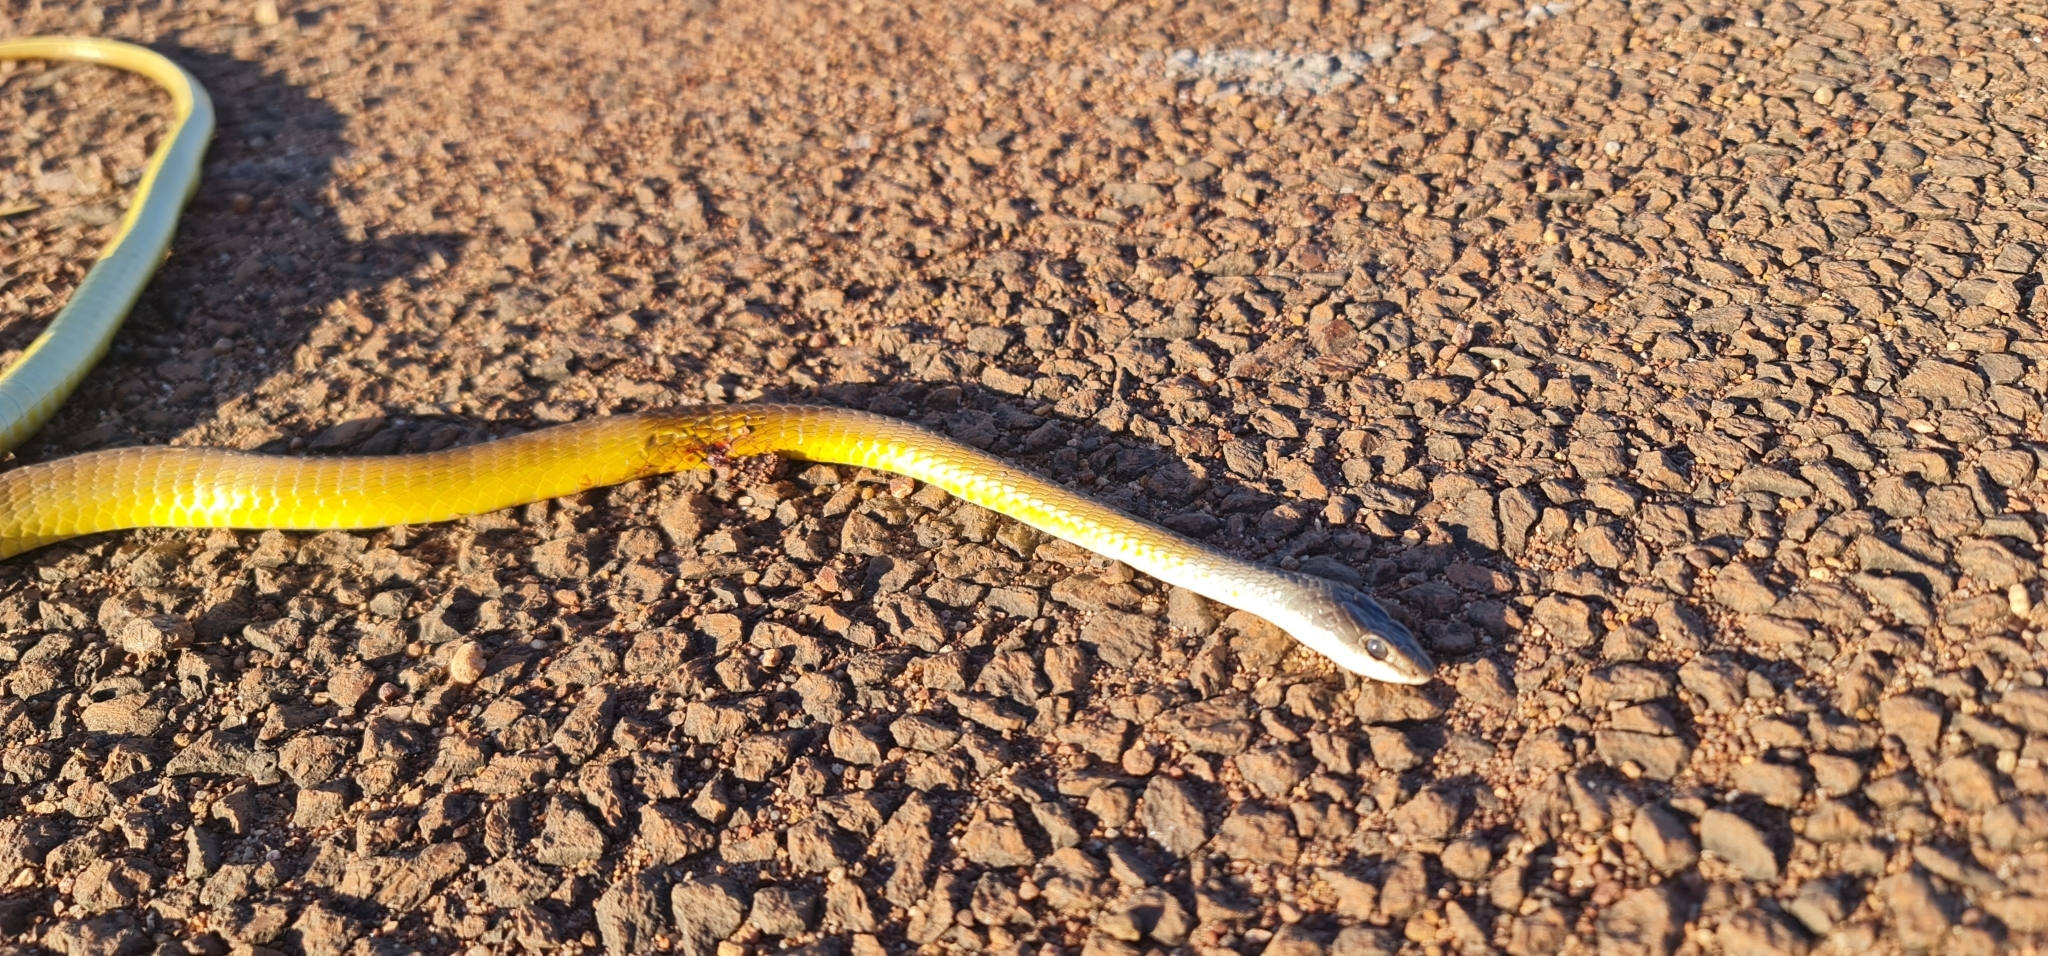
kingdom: Animalia
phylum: Chordata
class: Squamata
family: Colubridae
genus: Dendrelaphis
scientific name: Dendrelaphis punctulatus
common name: Common tree snake
